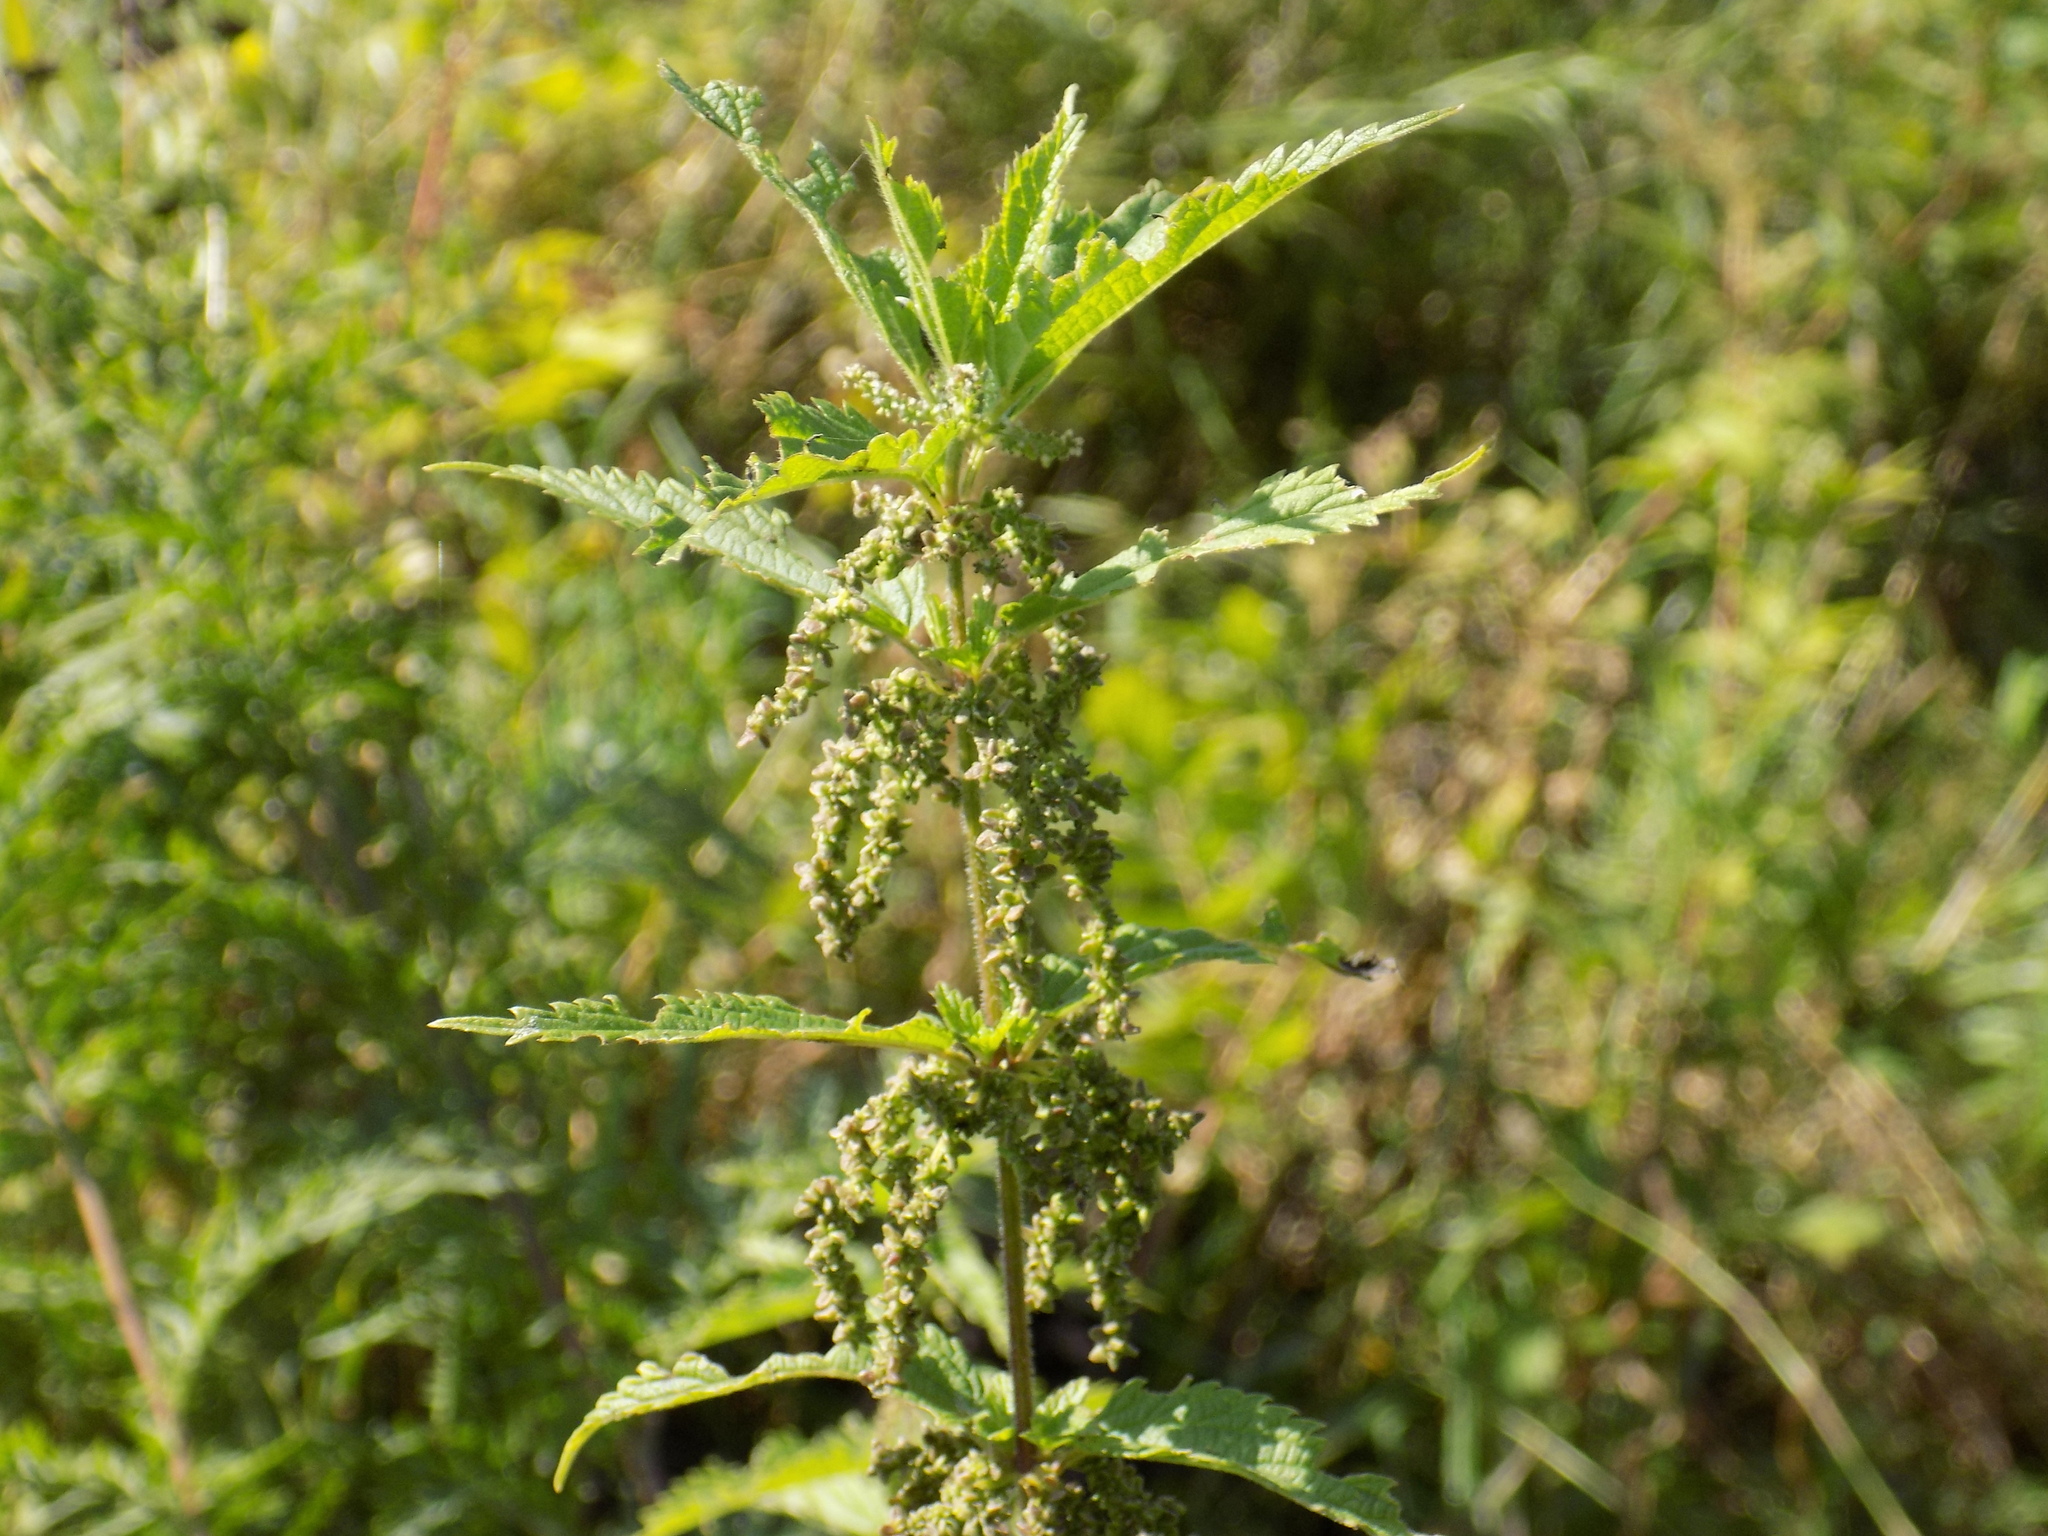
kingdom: Plantae
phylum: Tracheophyta
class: Magnoliopsida
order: Rosales
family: Urticaceae
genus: Urtica
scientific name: Urtica dioica
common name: Common nettle
